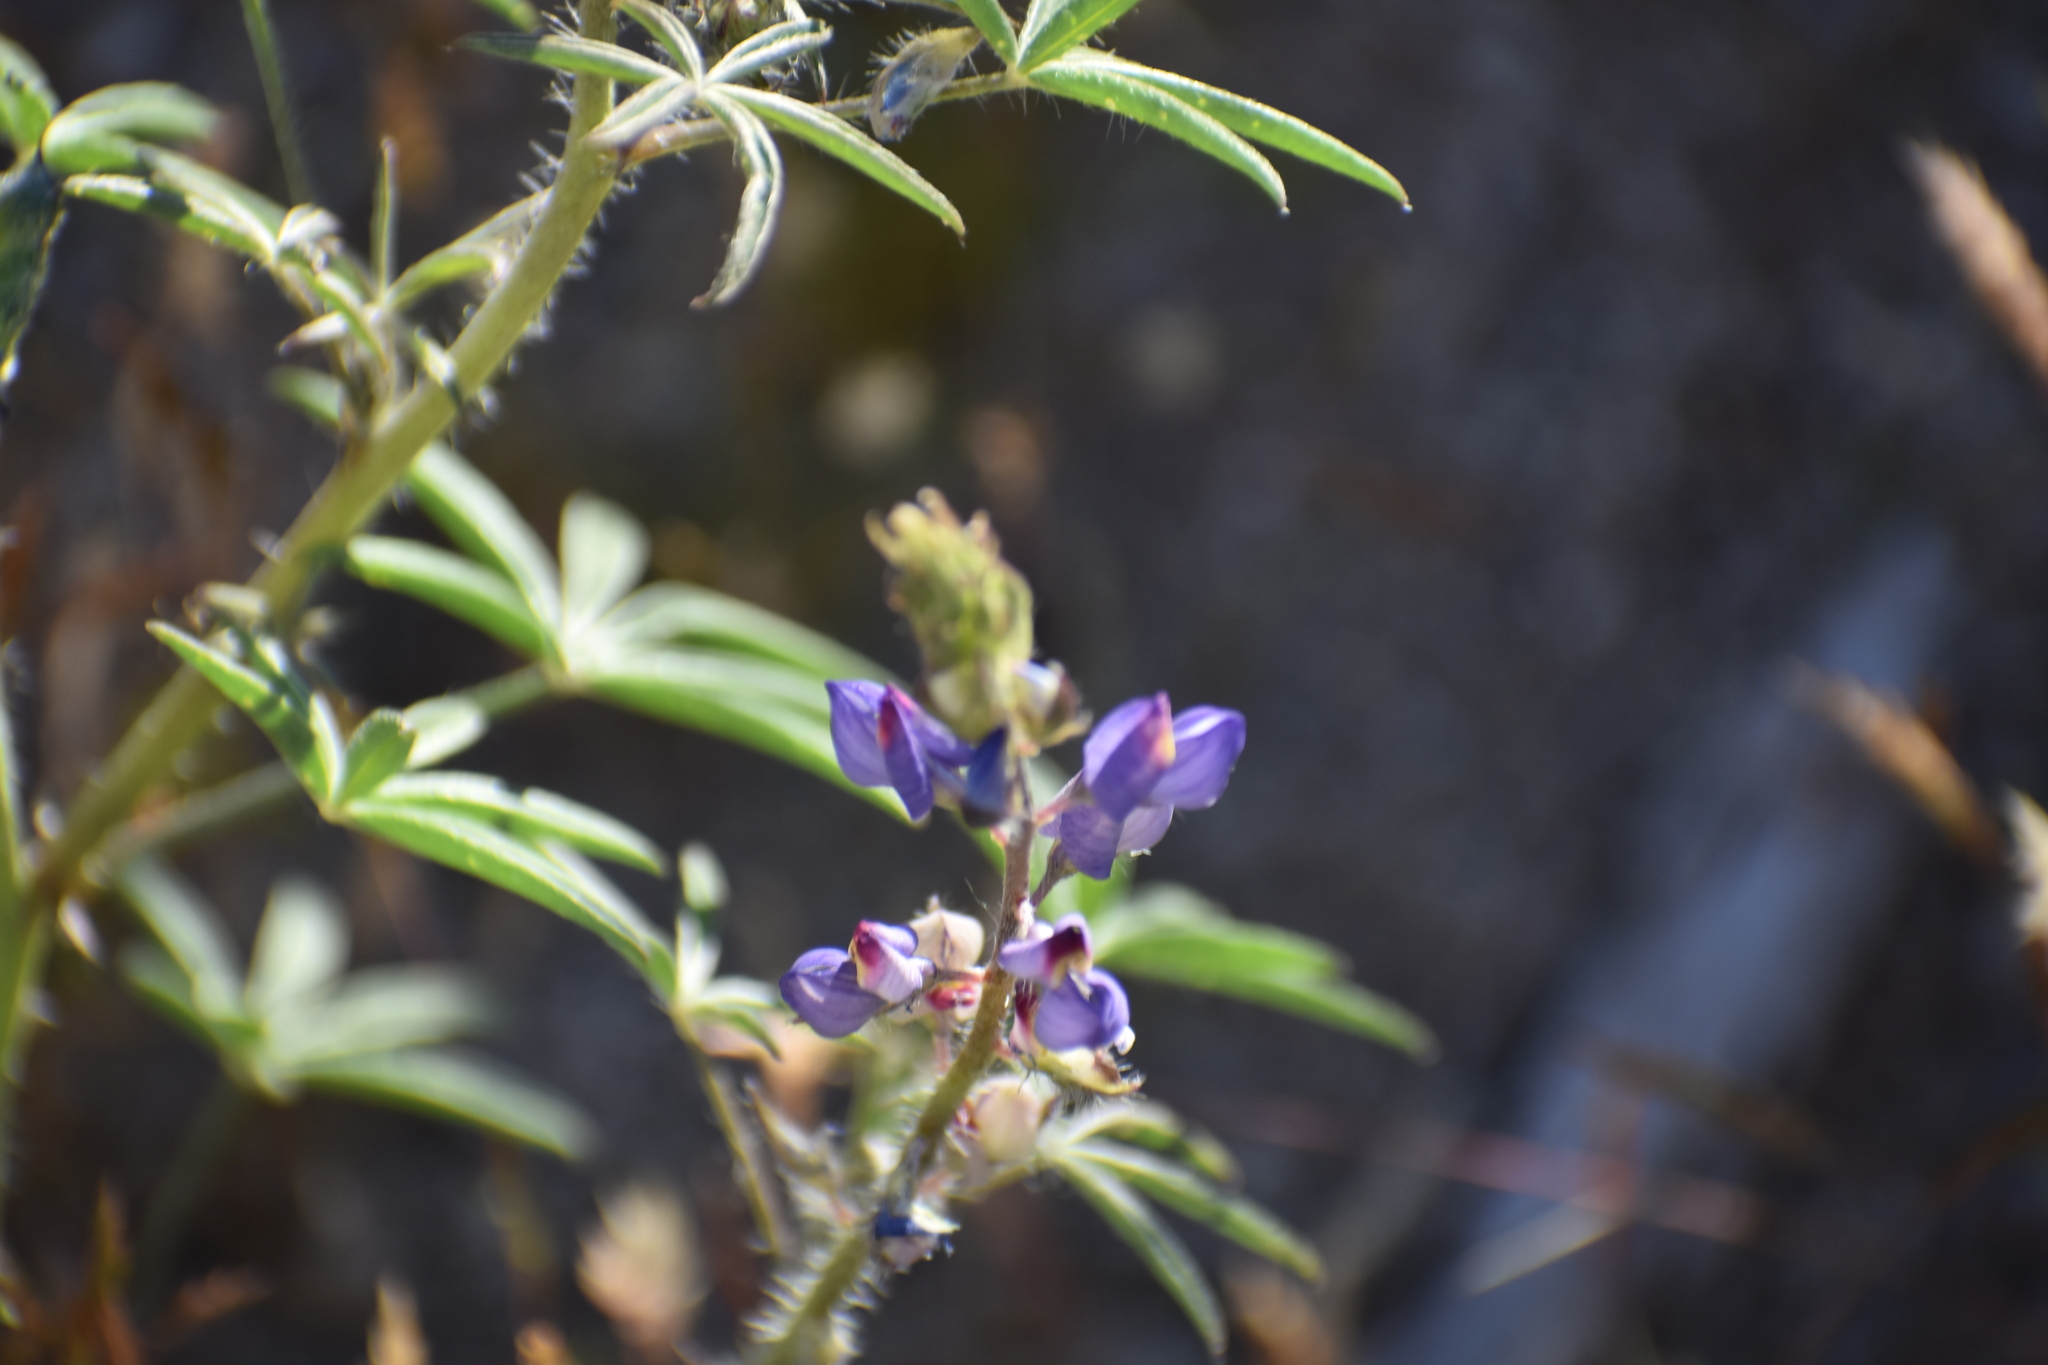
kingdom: Plantae
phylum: Tracheophyta
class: Magnoliopsida
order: Fabales
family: Fabaceae
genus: Lupinus
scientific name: Lupinus sparsiflorus
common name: Coulter's lupine
